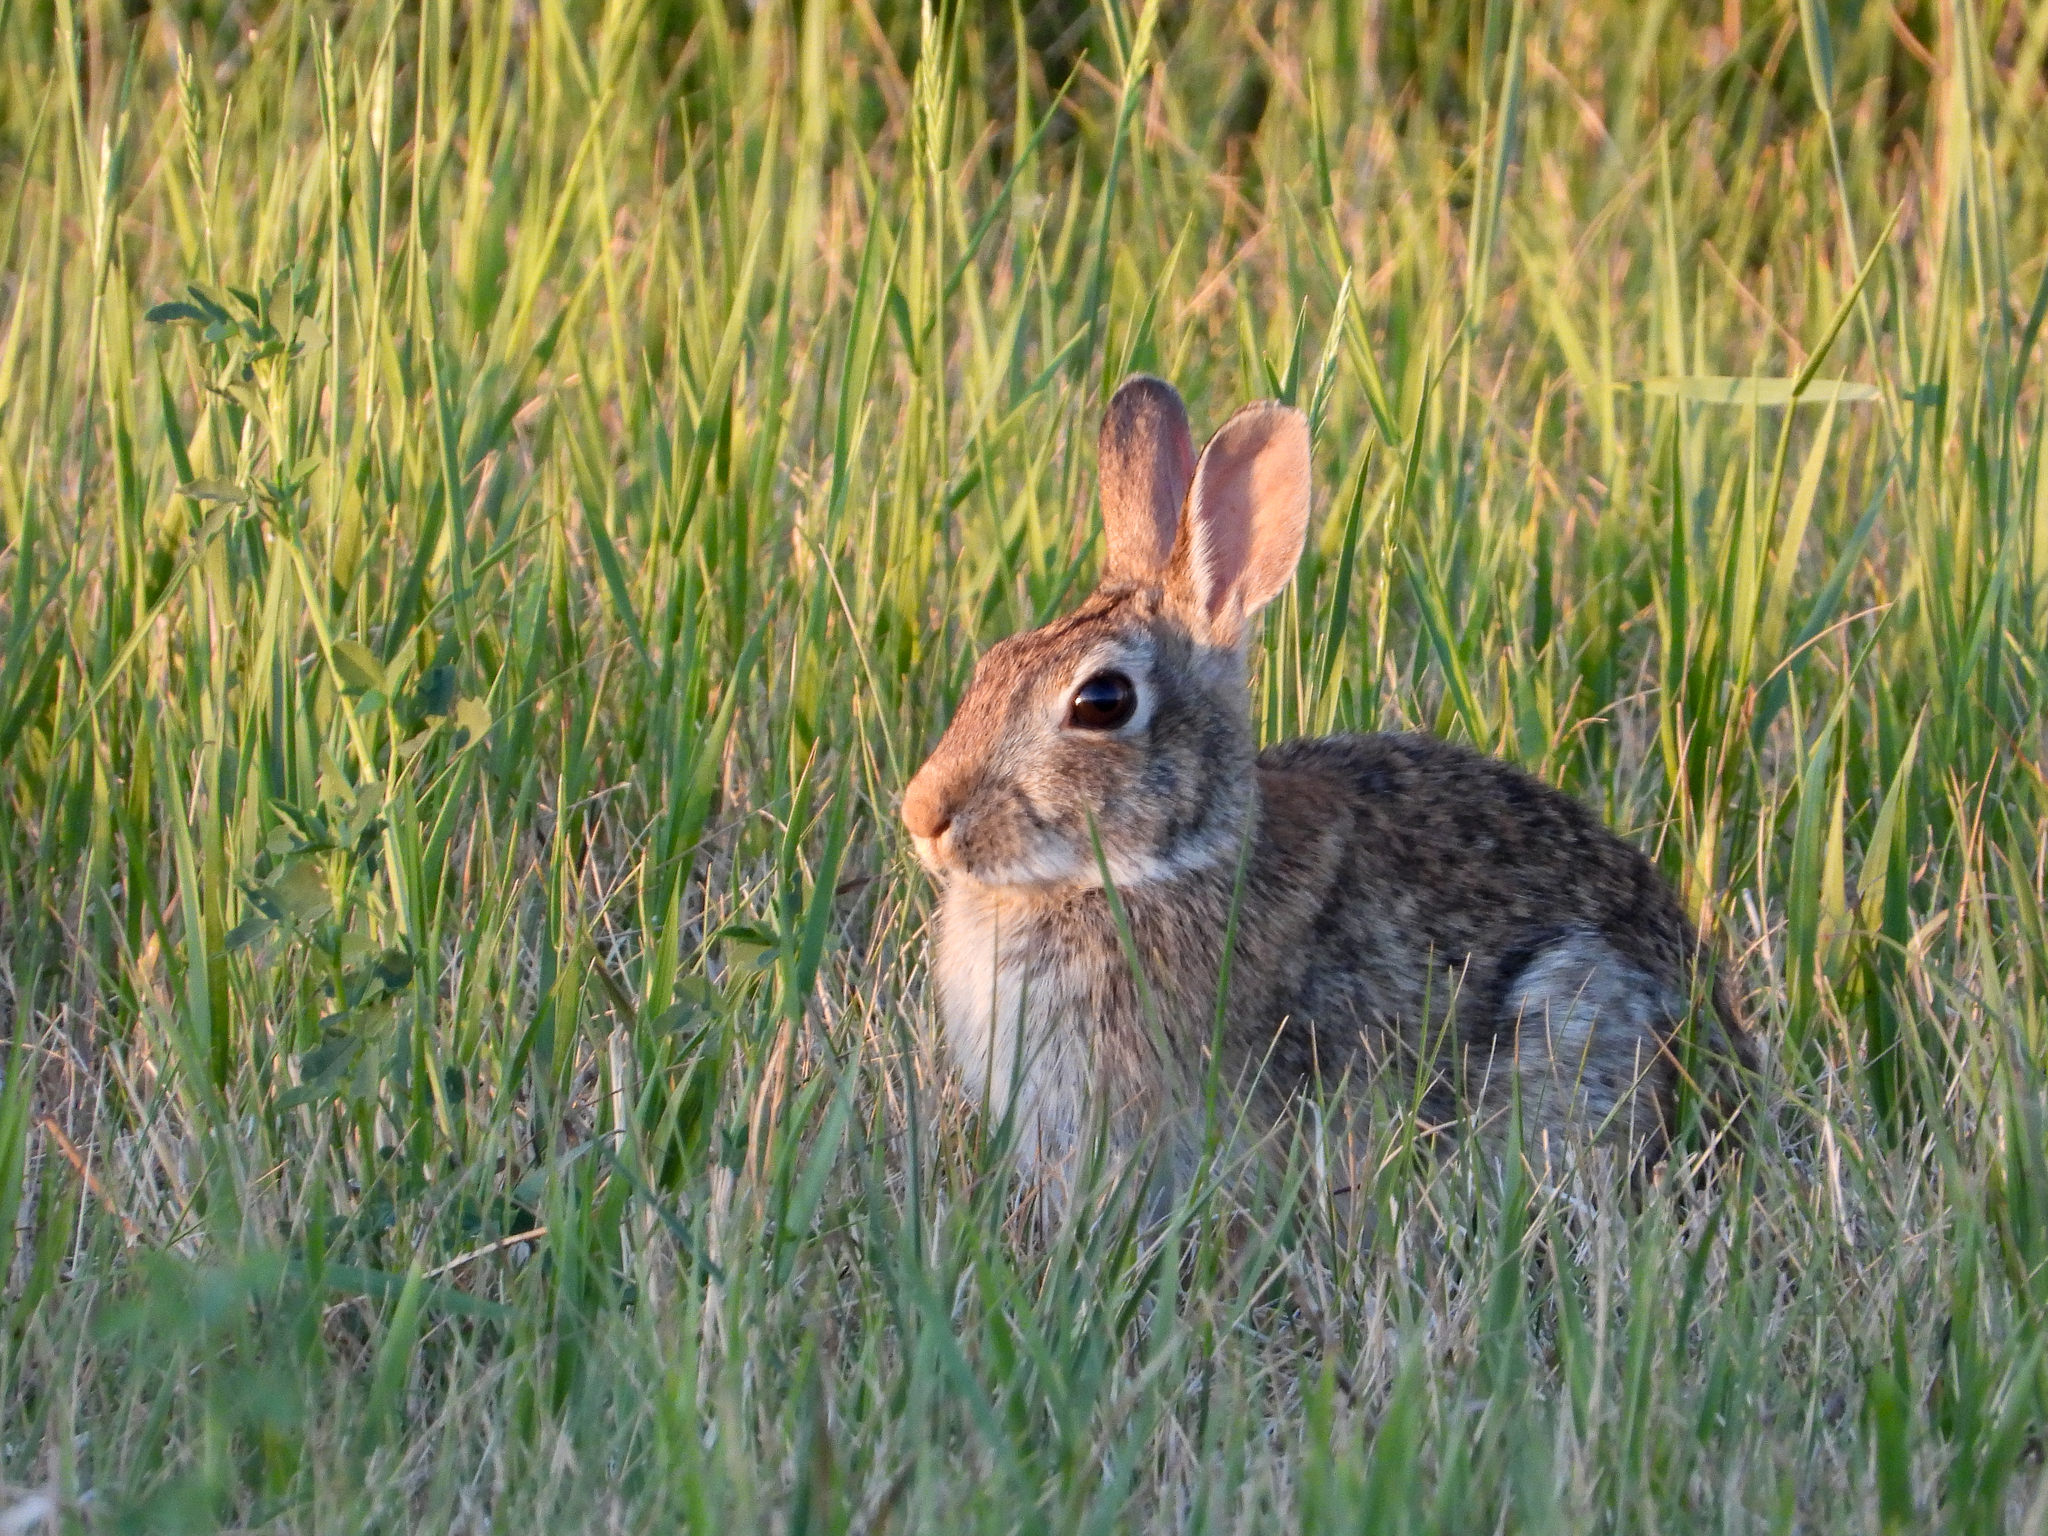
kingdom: Animalia
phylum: Chordata
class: Mammalia
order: Lagomorpha
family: Leporidae
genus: Sylvilagus
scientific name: Sylvilagus floridanus
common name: Eastern cottontail
